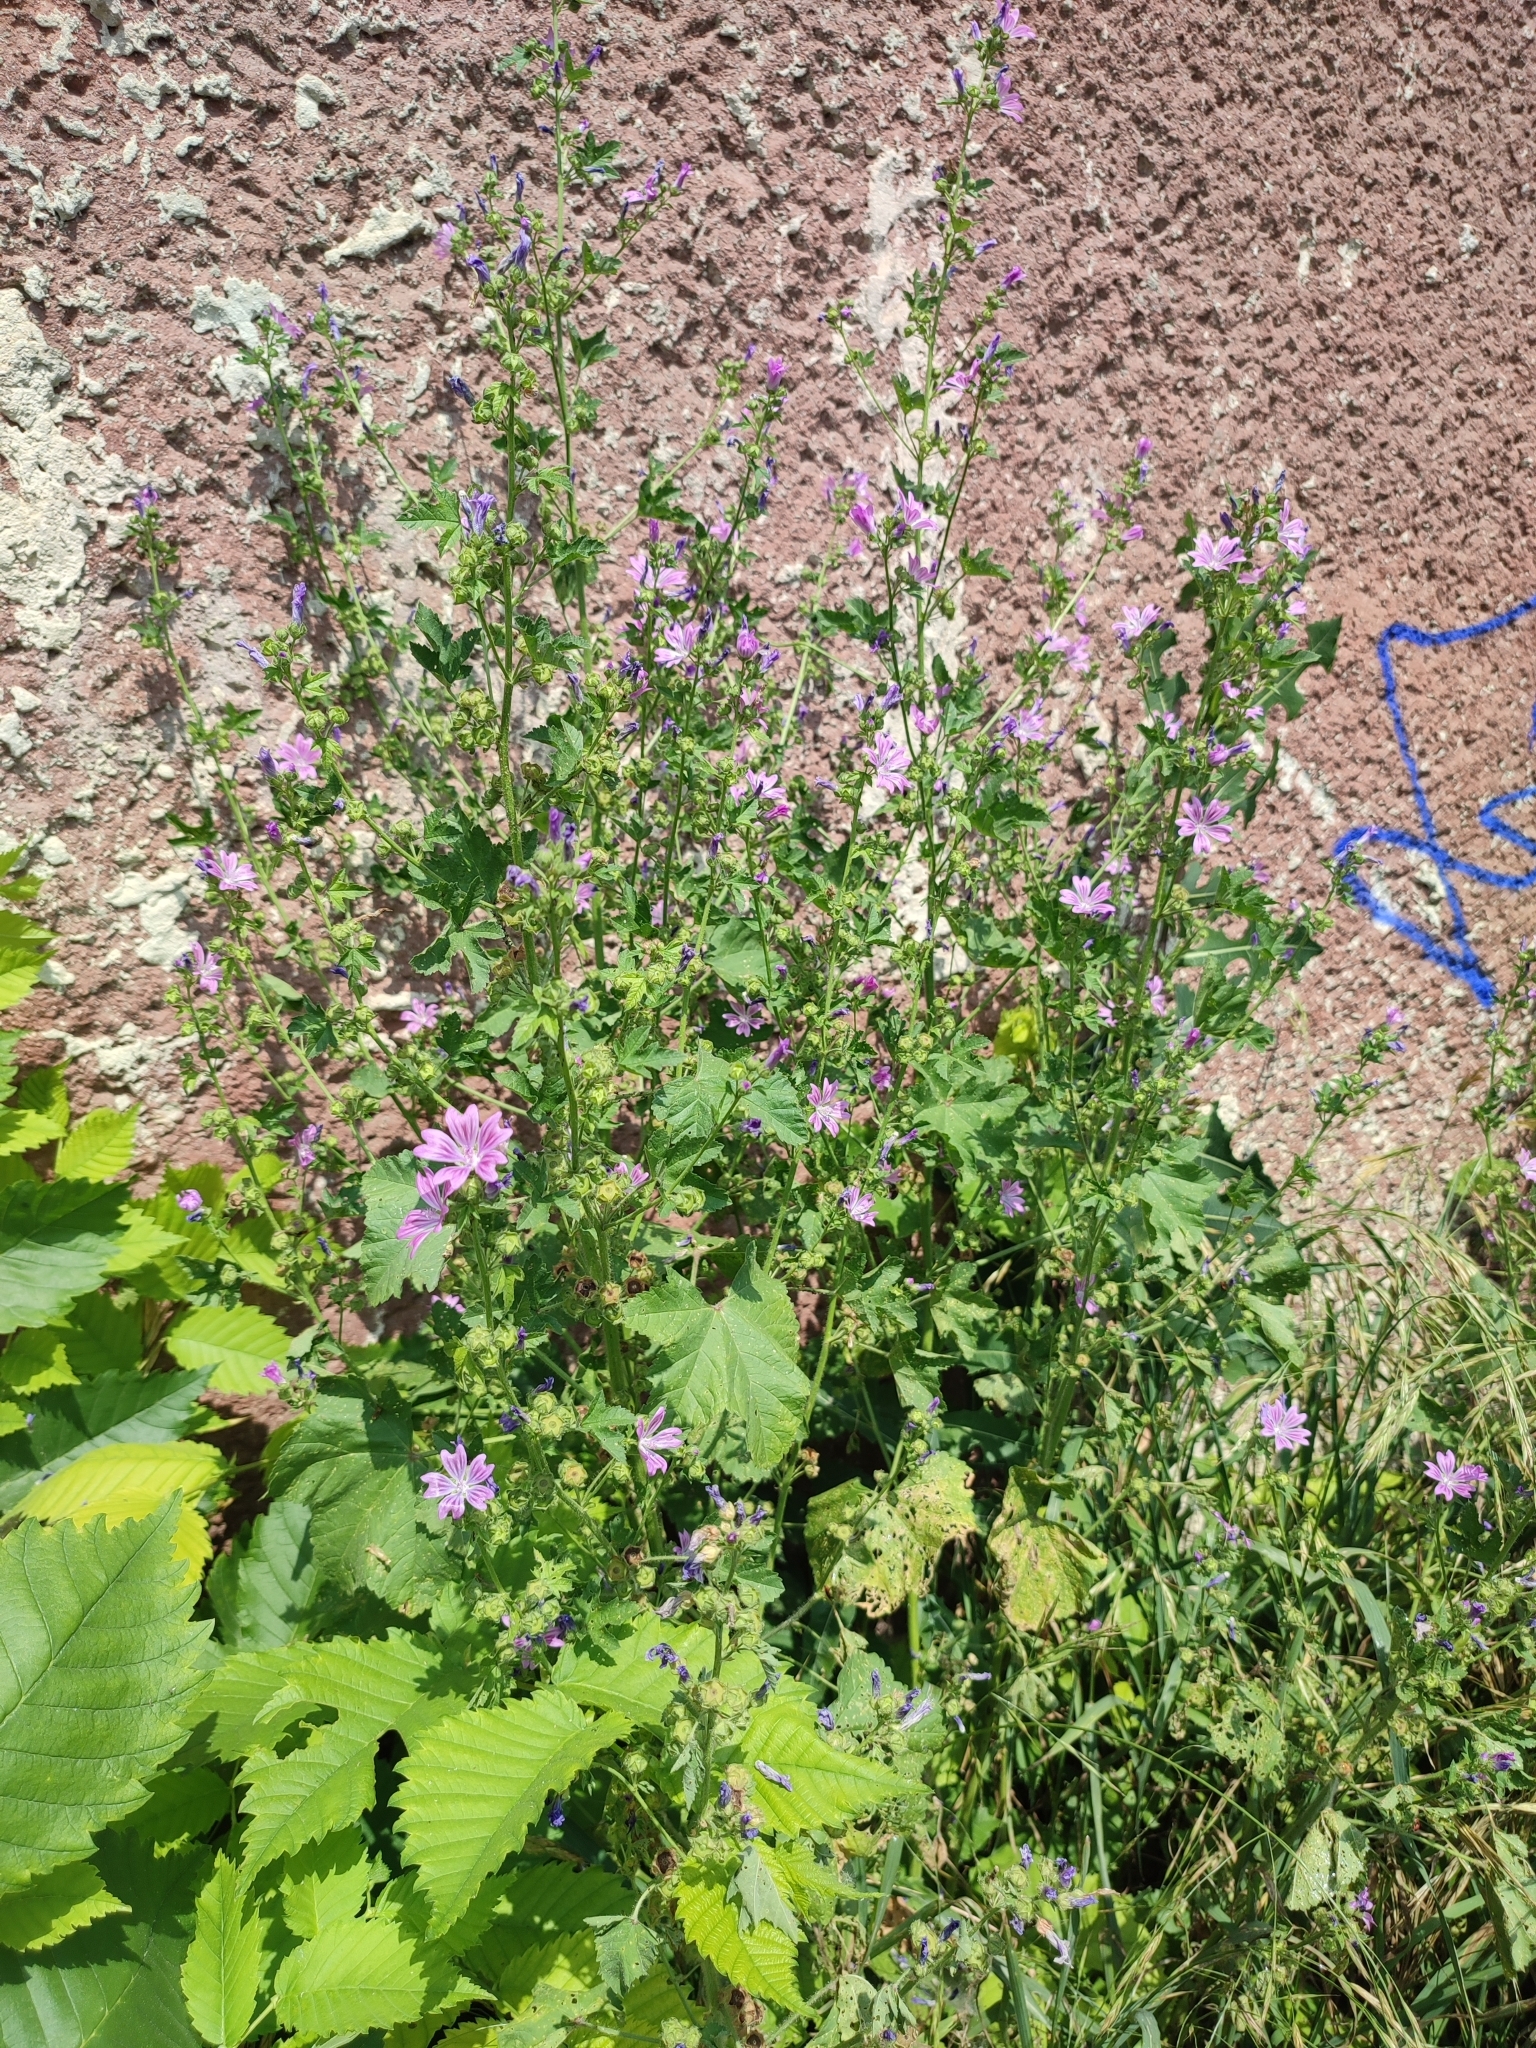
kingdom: Plantae
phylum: Tracheophyta
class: Magnoliopsida
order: Malvales
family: Malvaceae
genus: Malva
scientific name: Malva sylvestris
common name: Common mallow
